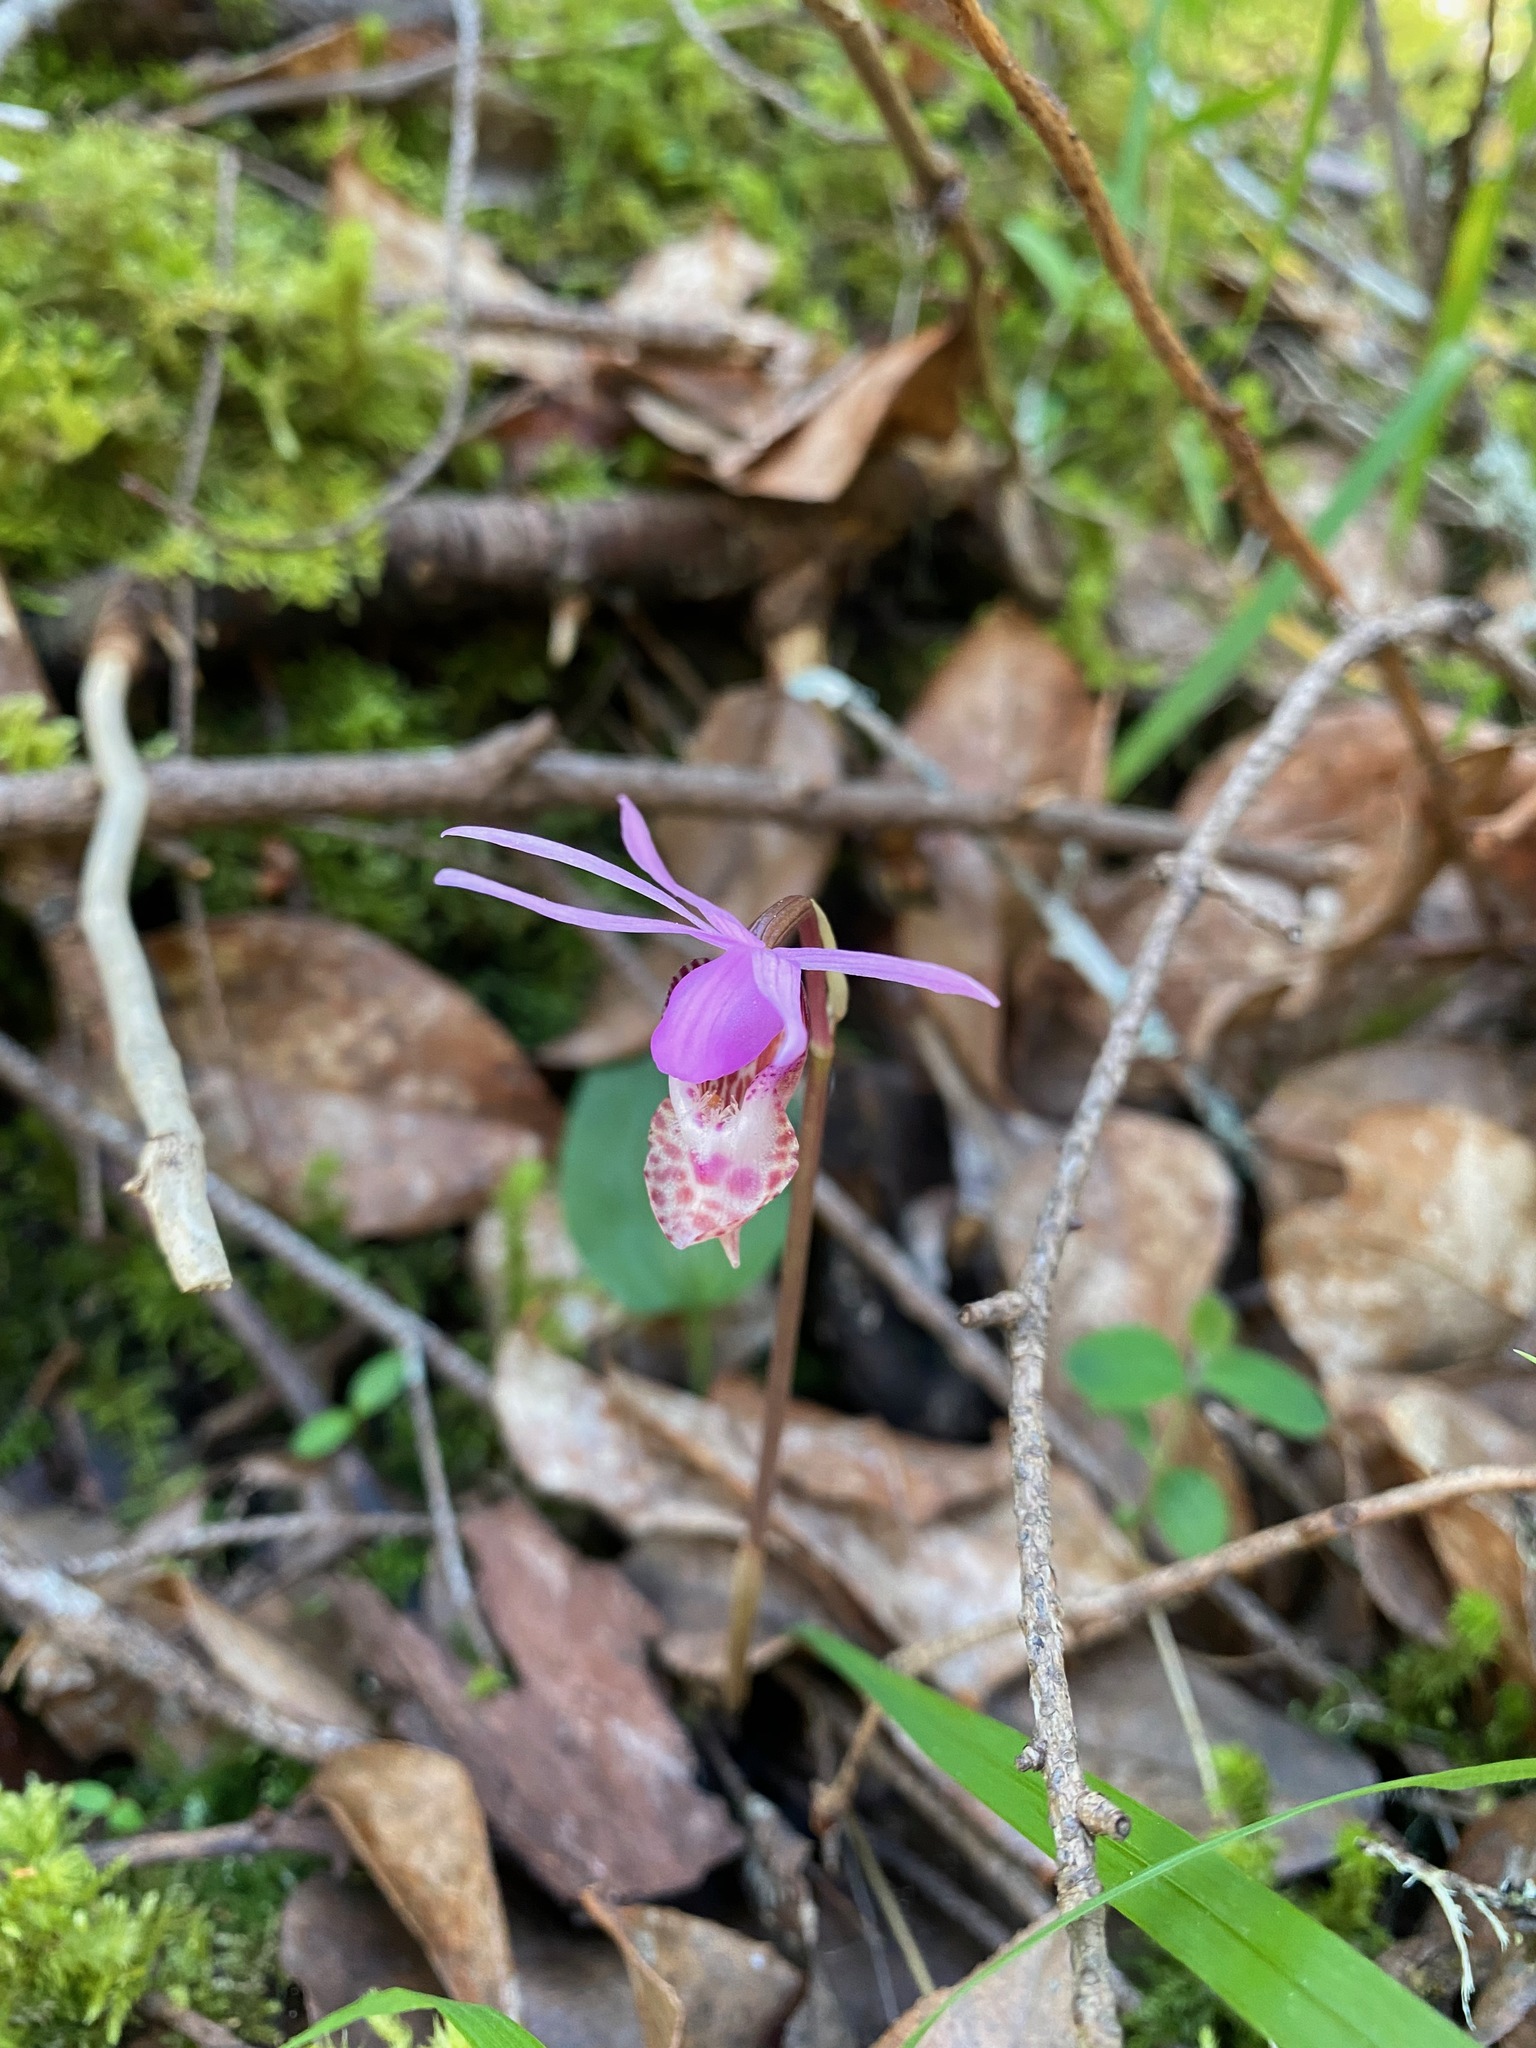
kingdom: Plantae
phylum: Tracheophyta
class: Liliopsida
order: Asparagales
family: Orchidaceae
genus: Calypso
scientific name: Calypso bulbosa
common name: Calypso
